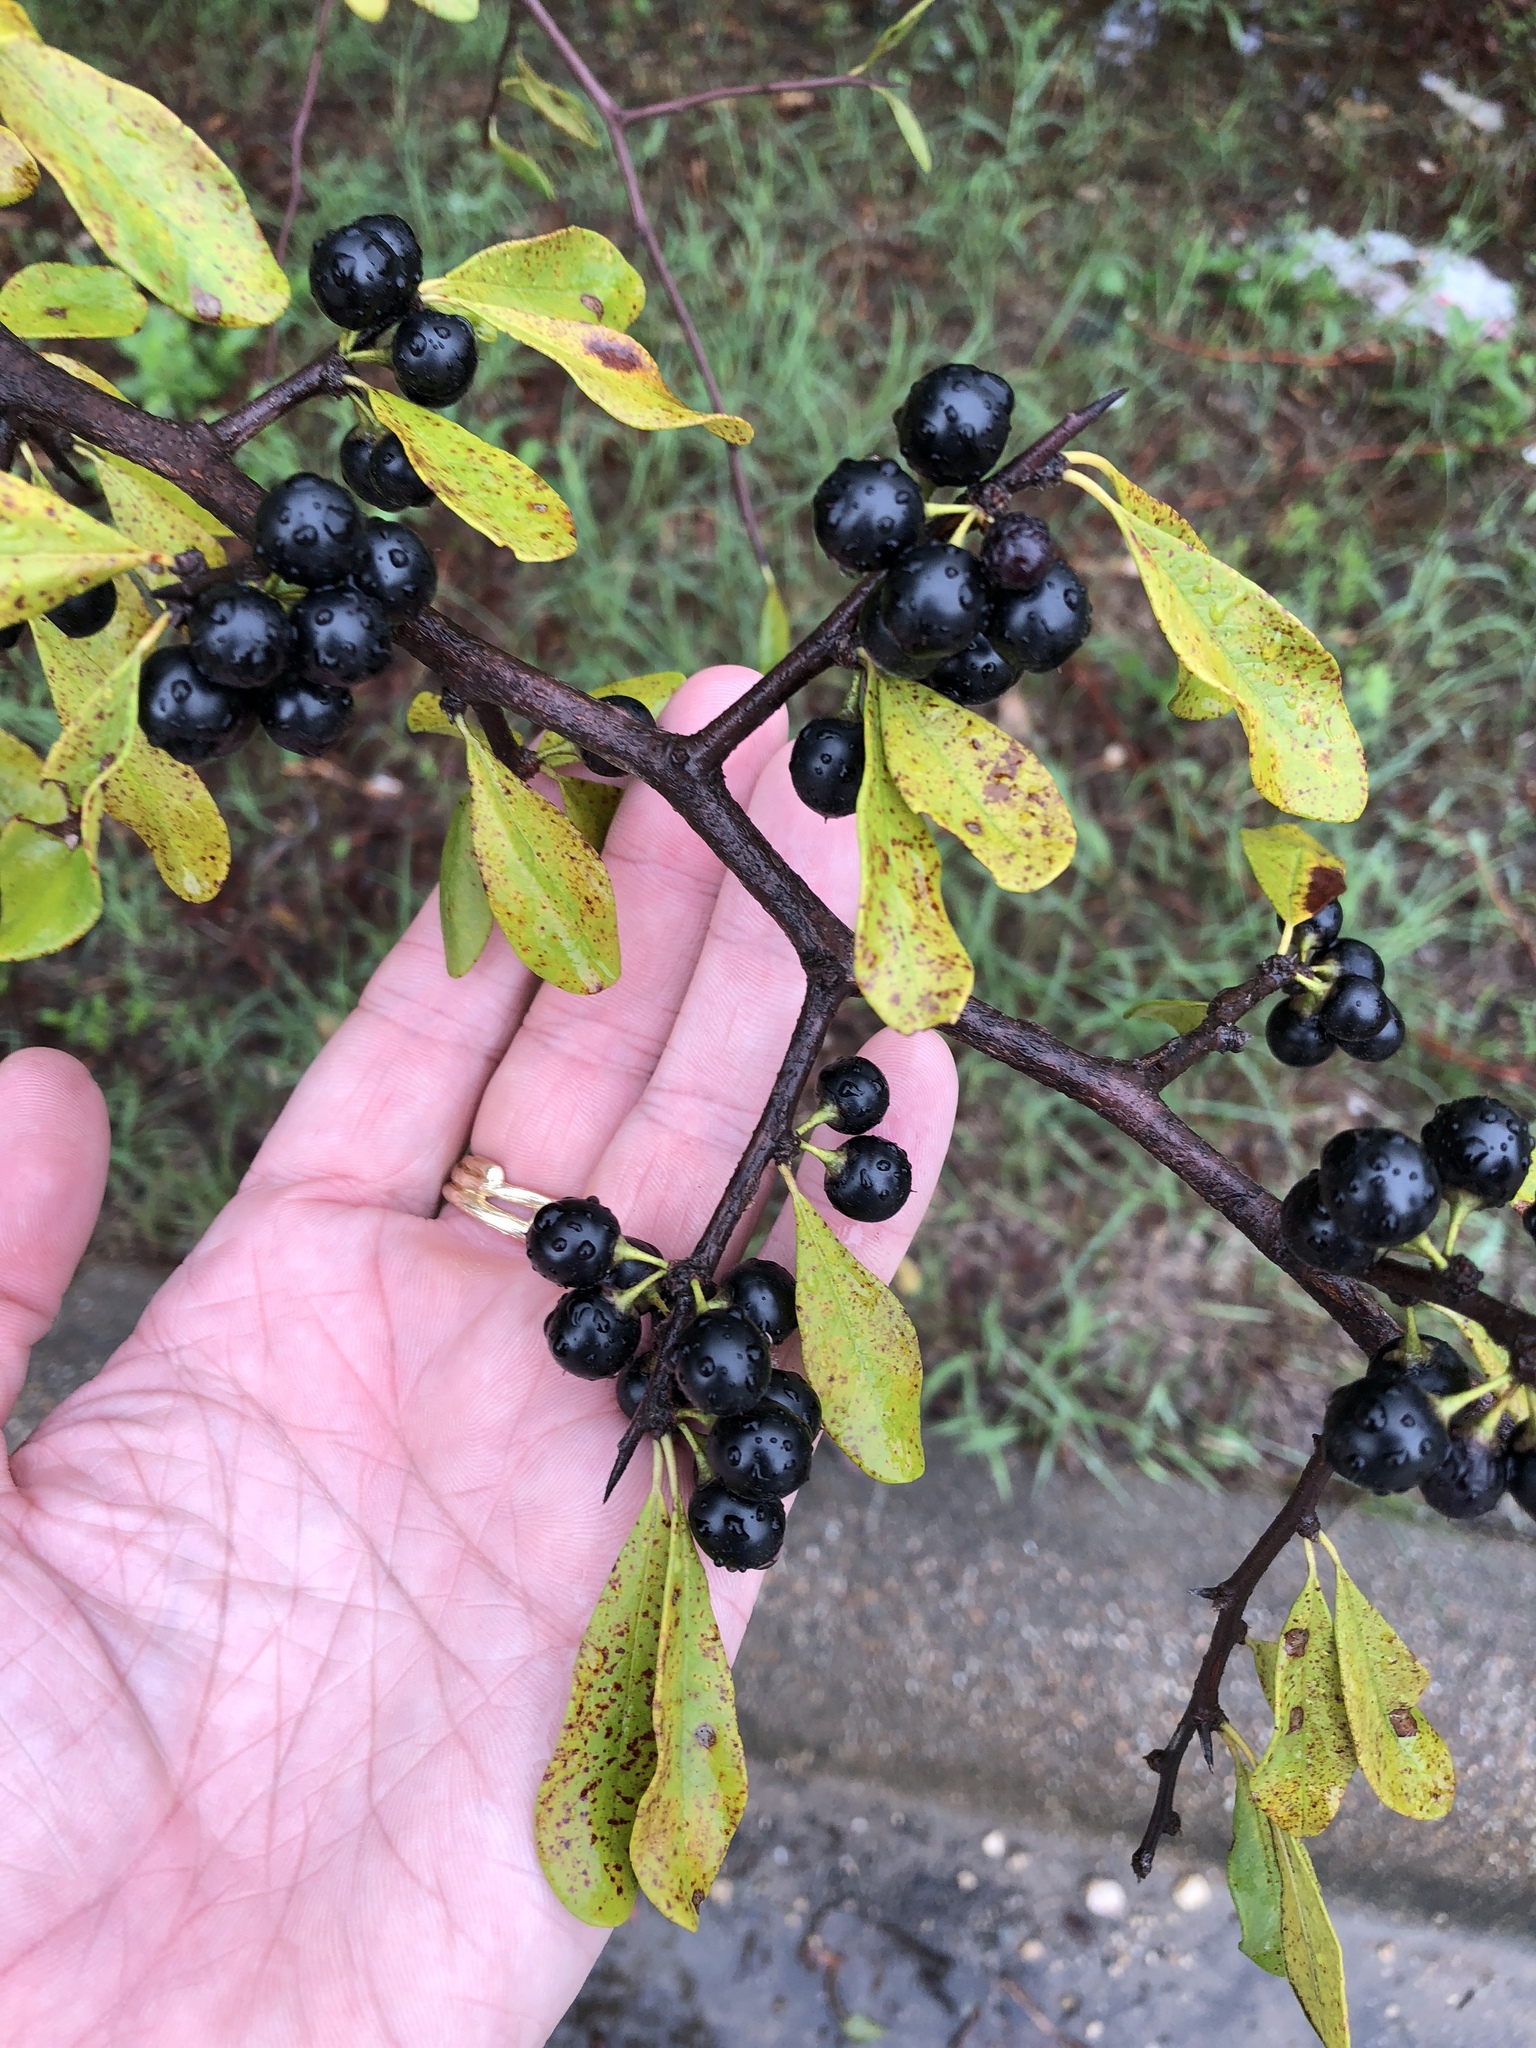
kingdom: Plantae
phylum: Tracheophyta
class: Magnoliopsida
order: Ericales
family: Sapotaceae
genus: Sideroxylon
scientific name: Sideroxylon lanuginosum
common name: Chittamwood
